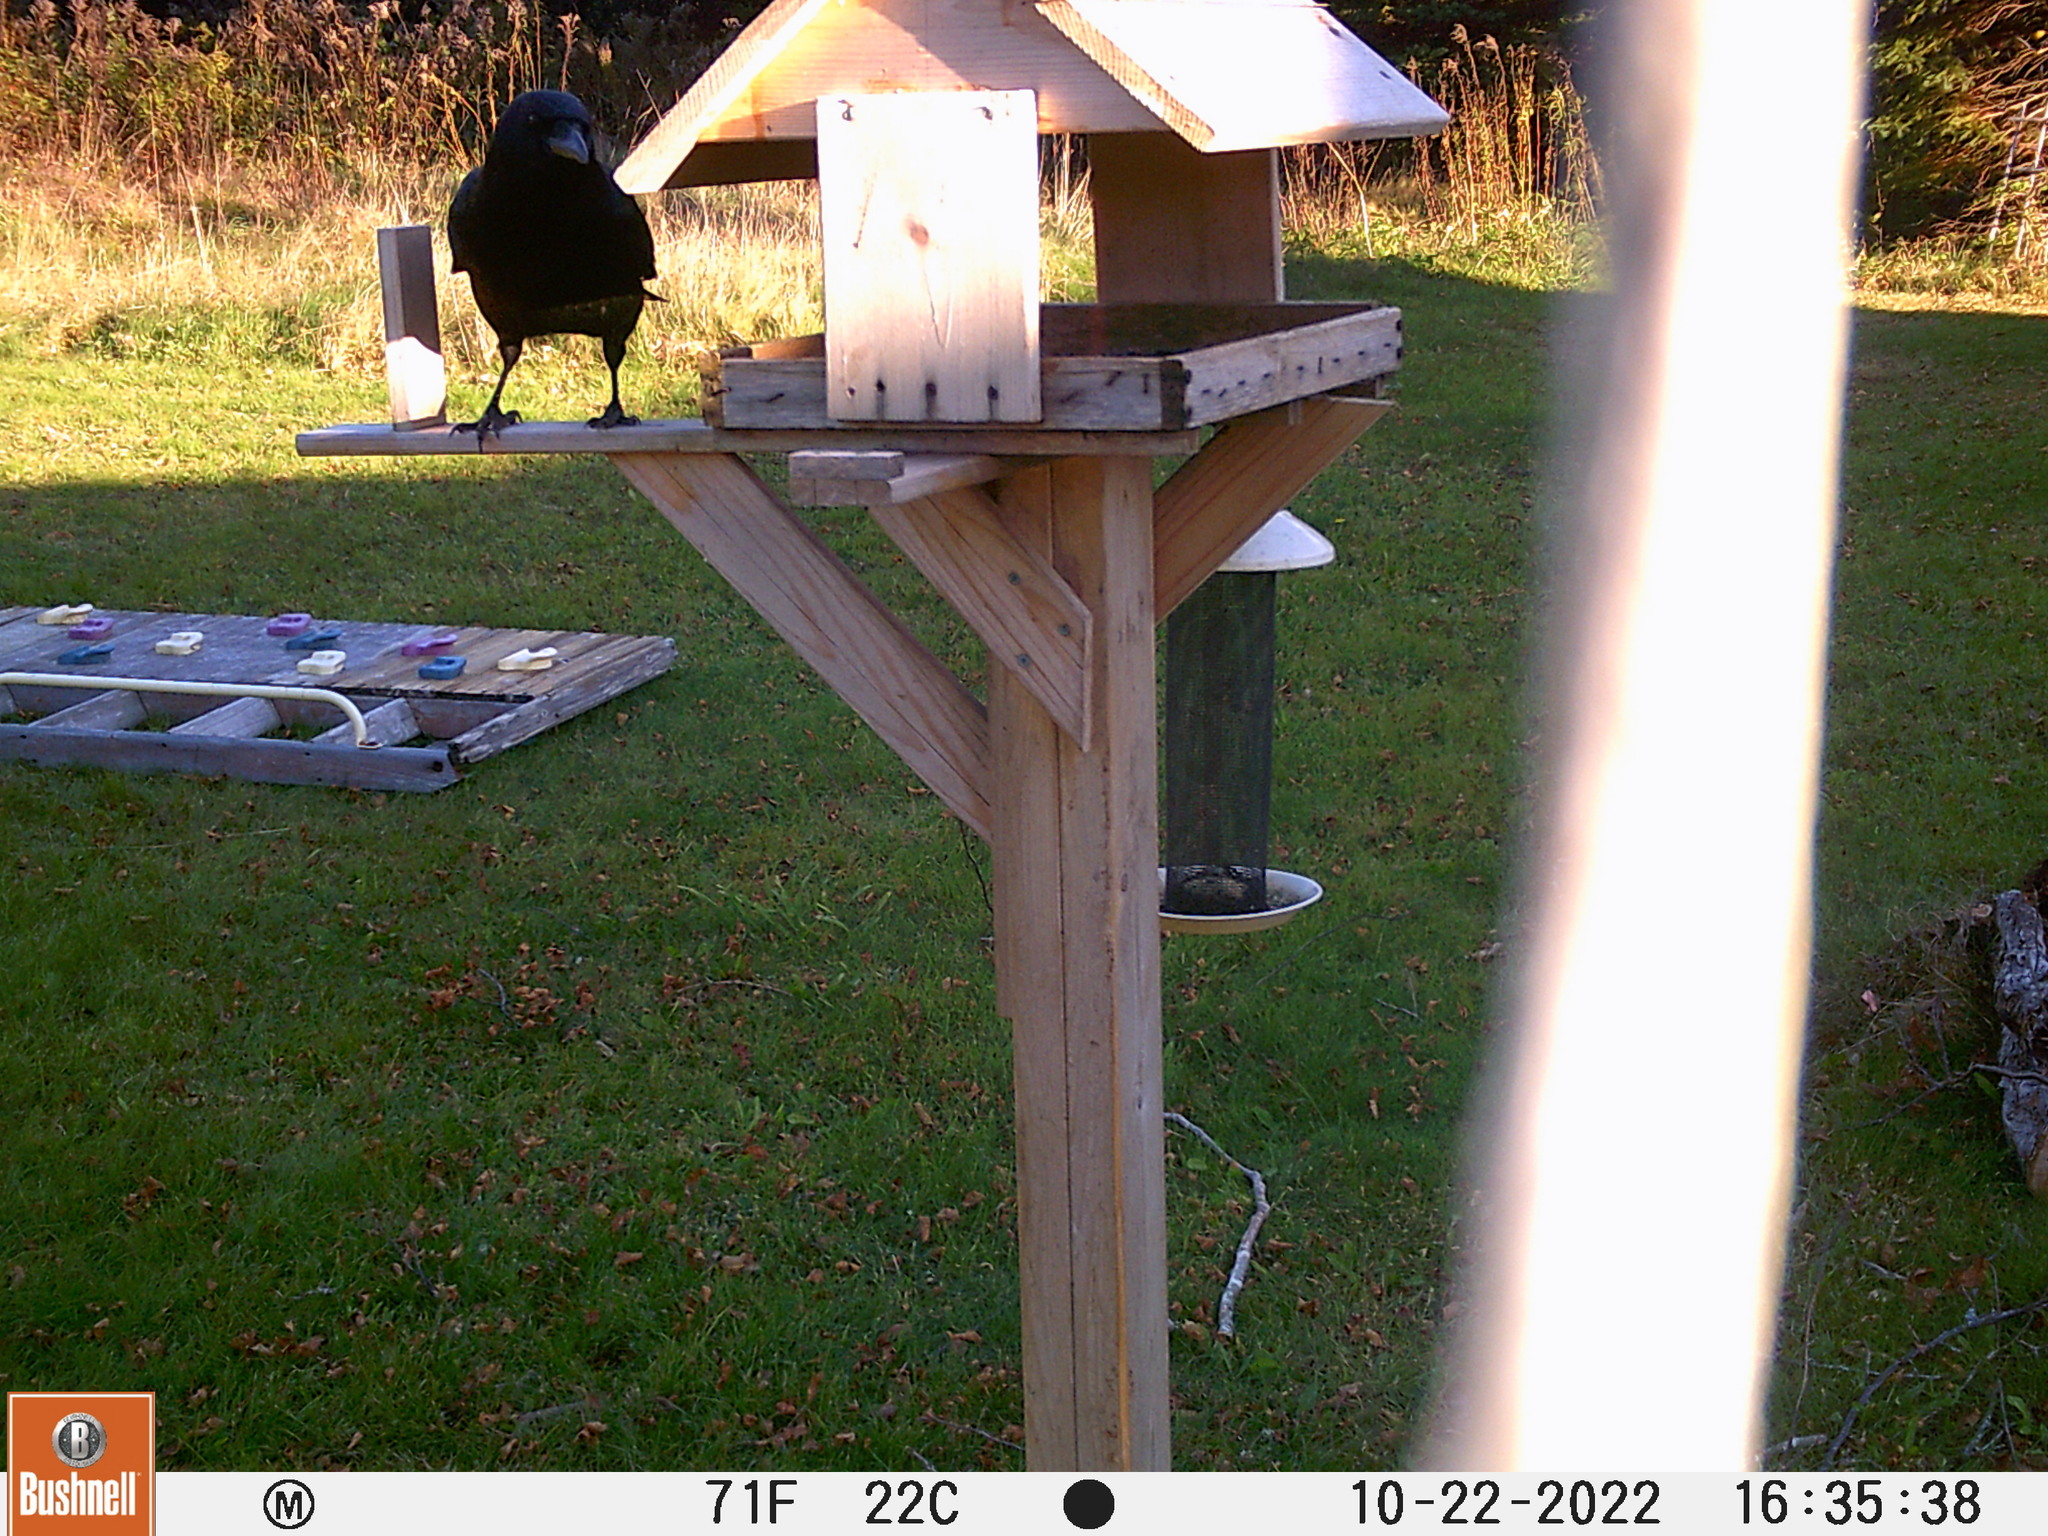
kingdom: Animalia
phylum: Chordata
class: Aves
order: Passeriformes
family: Corvidae
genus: Corvus
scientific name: Corvus brachyrhynchos
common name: American crow
